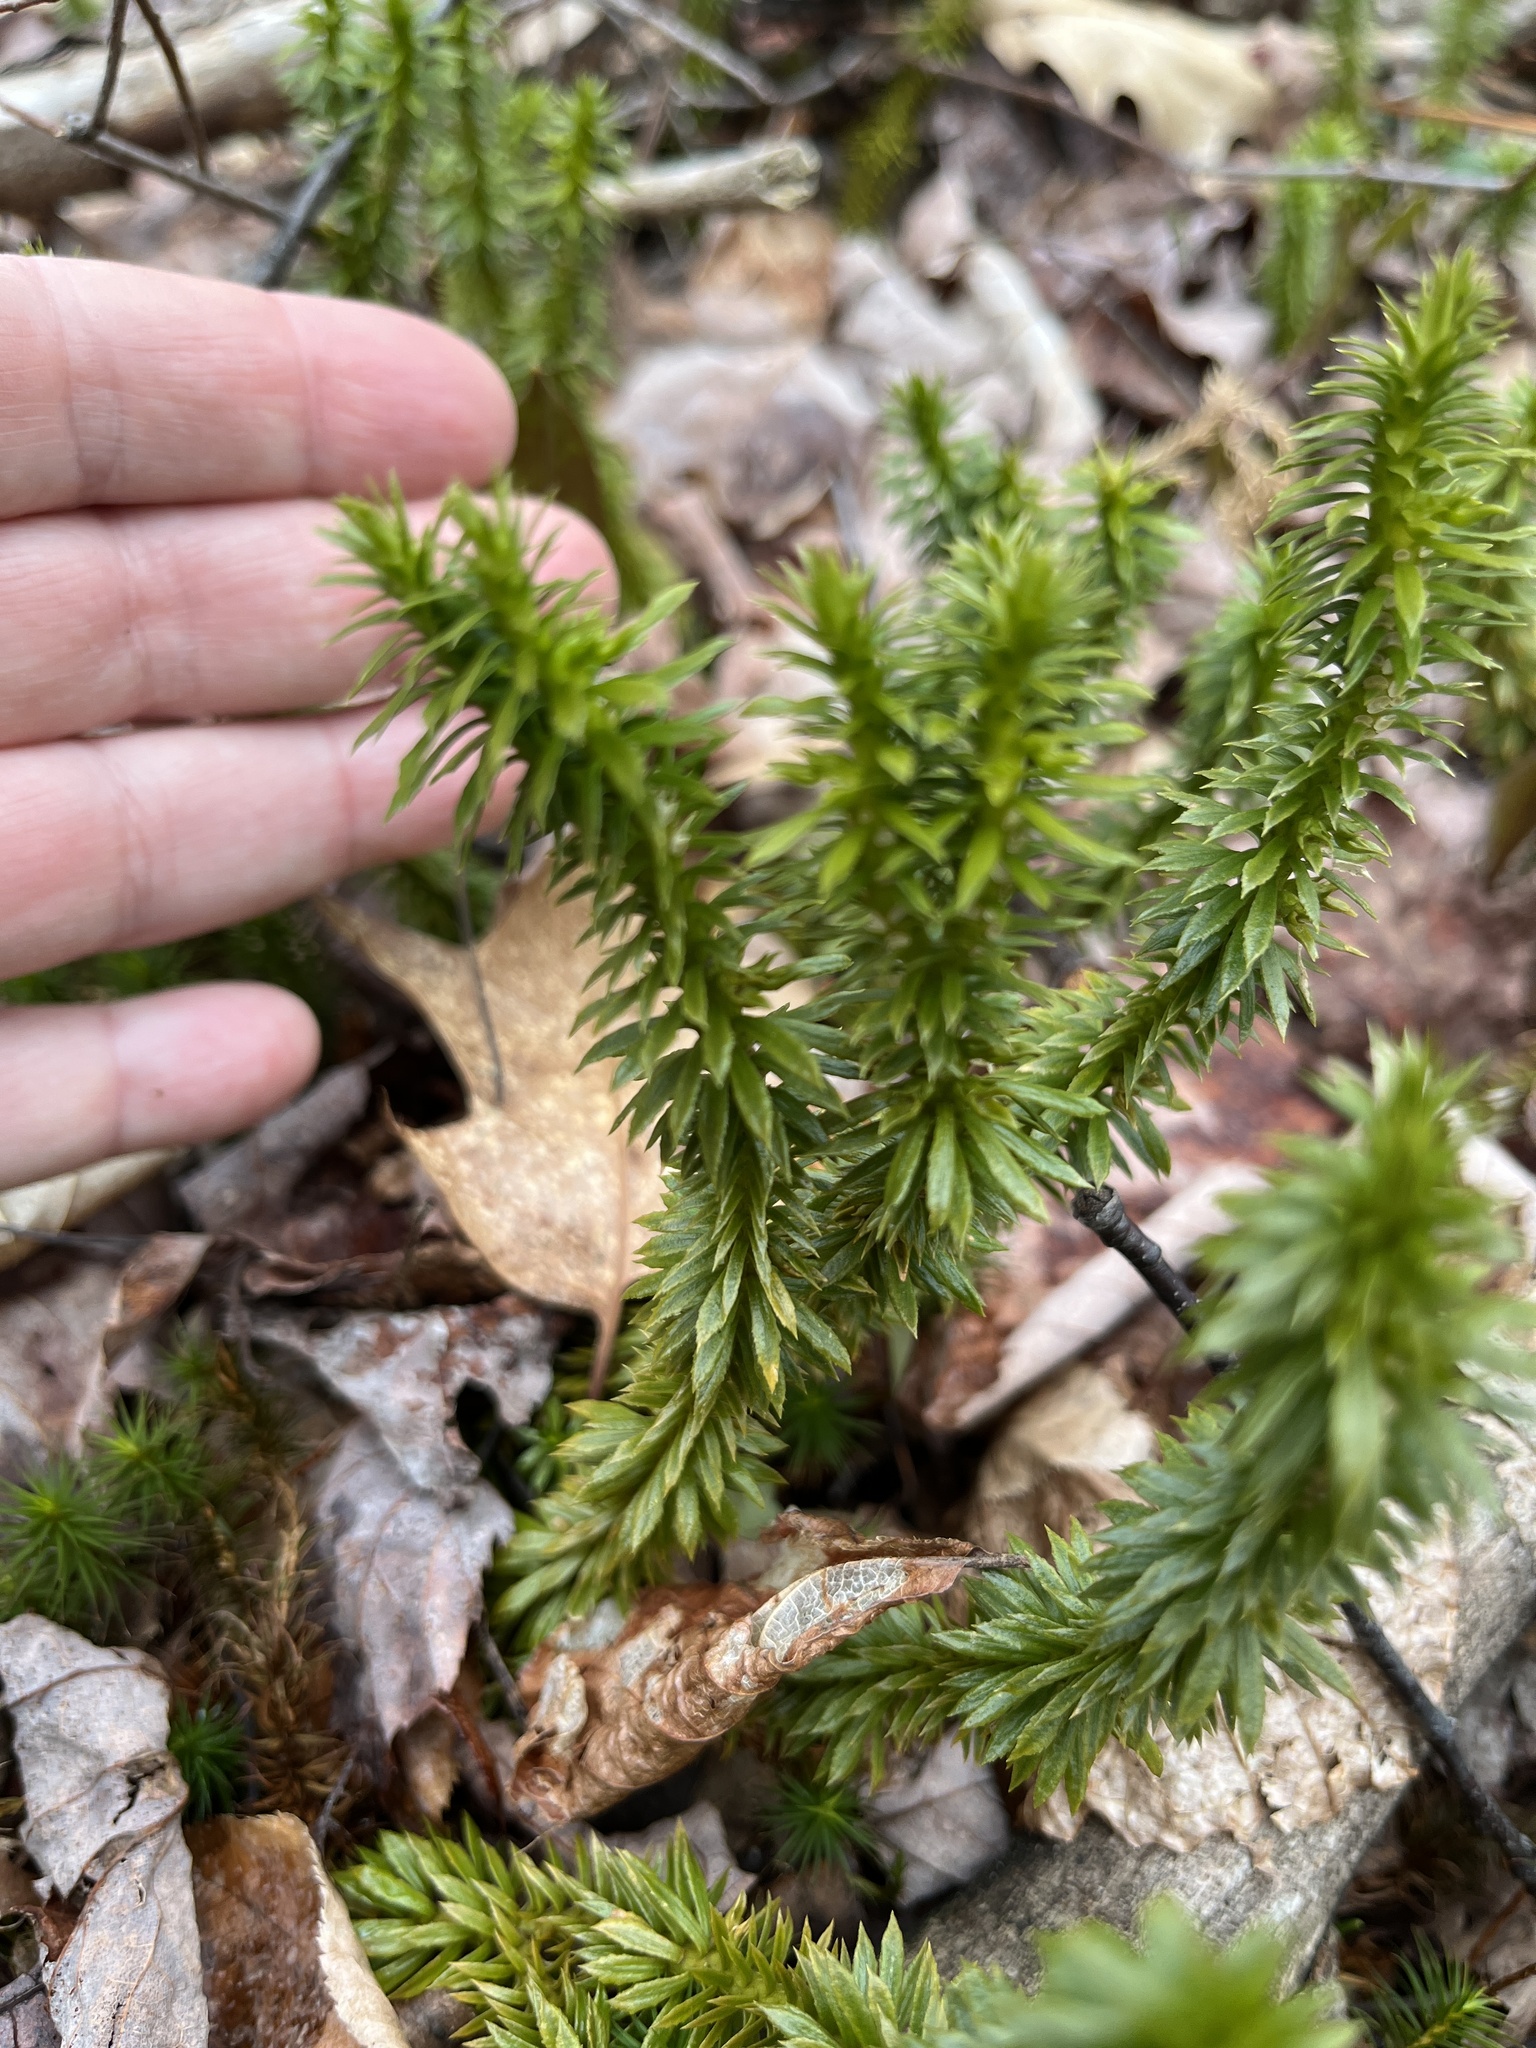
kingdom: Plantae
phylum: Tracheophyta
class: Lycopodiopsida
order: Lycopodiales
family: Lycopodiaceae
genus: Huperzia
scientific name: Huperzia lucidula
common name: Shining clubmoss
